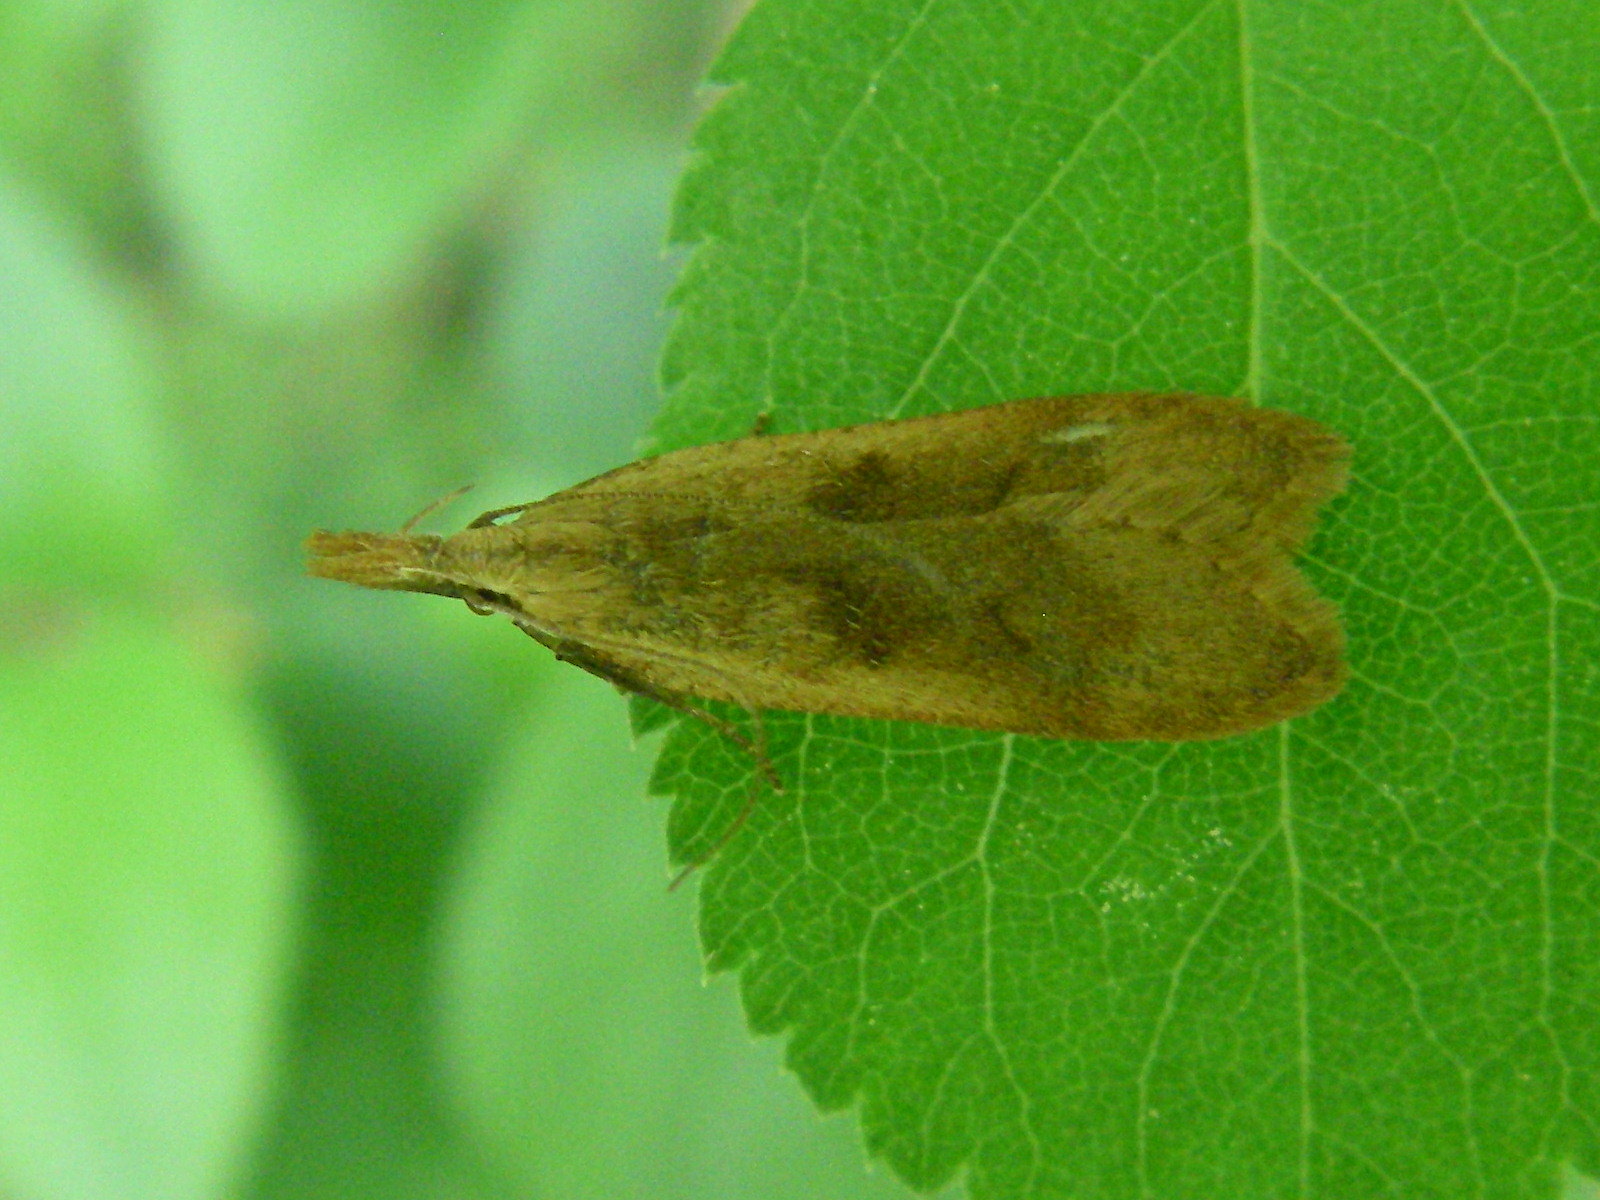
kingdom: Animalia
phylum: Arthropoda
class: Insecta
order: Lepidoptera
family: Gelechiidae
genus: Dichomeris
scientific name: Dichomeris derasella
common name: Blackthorn crest
